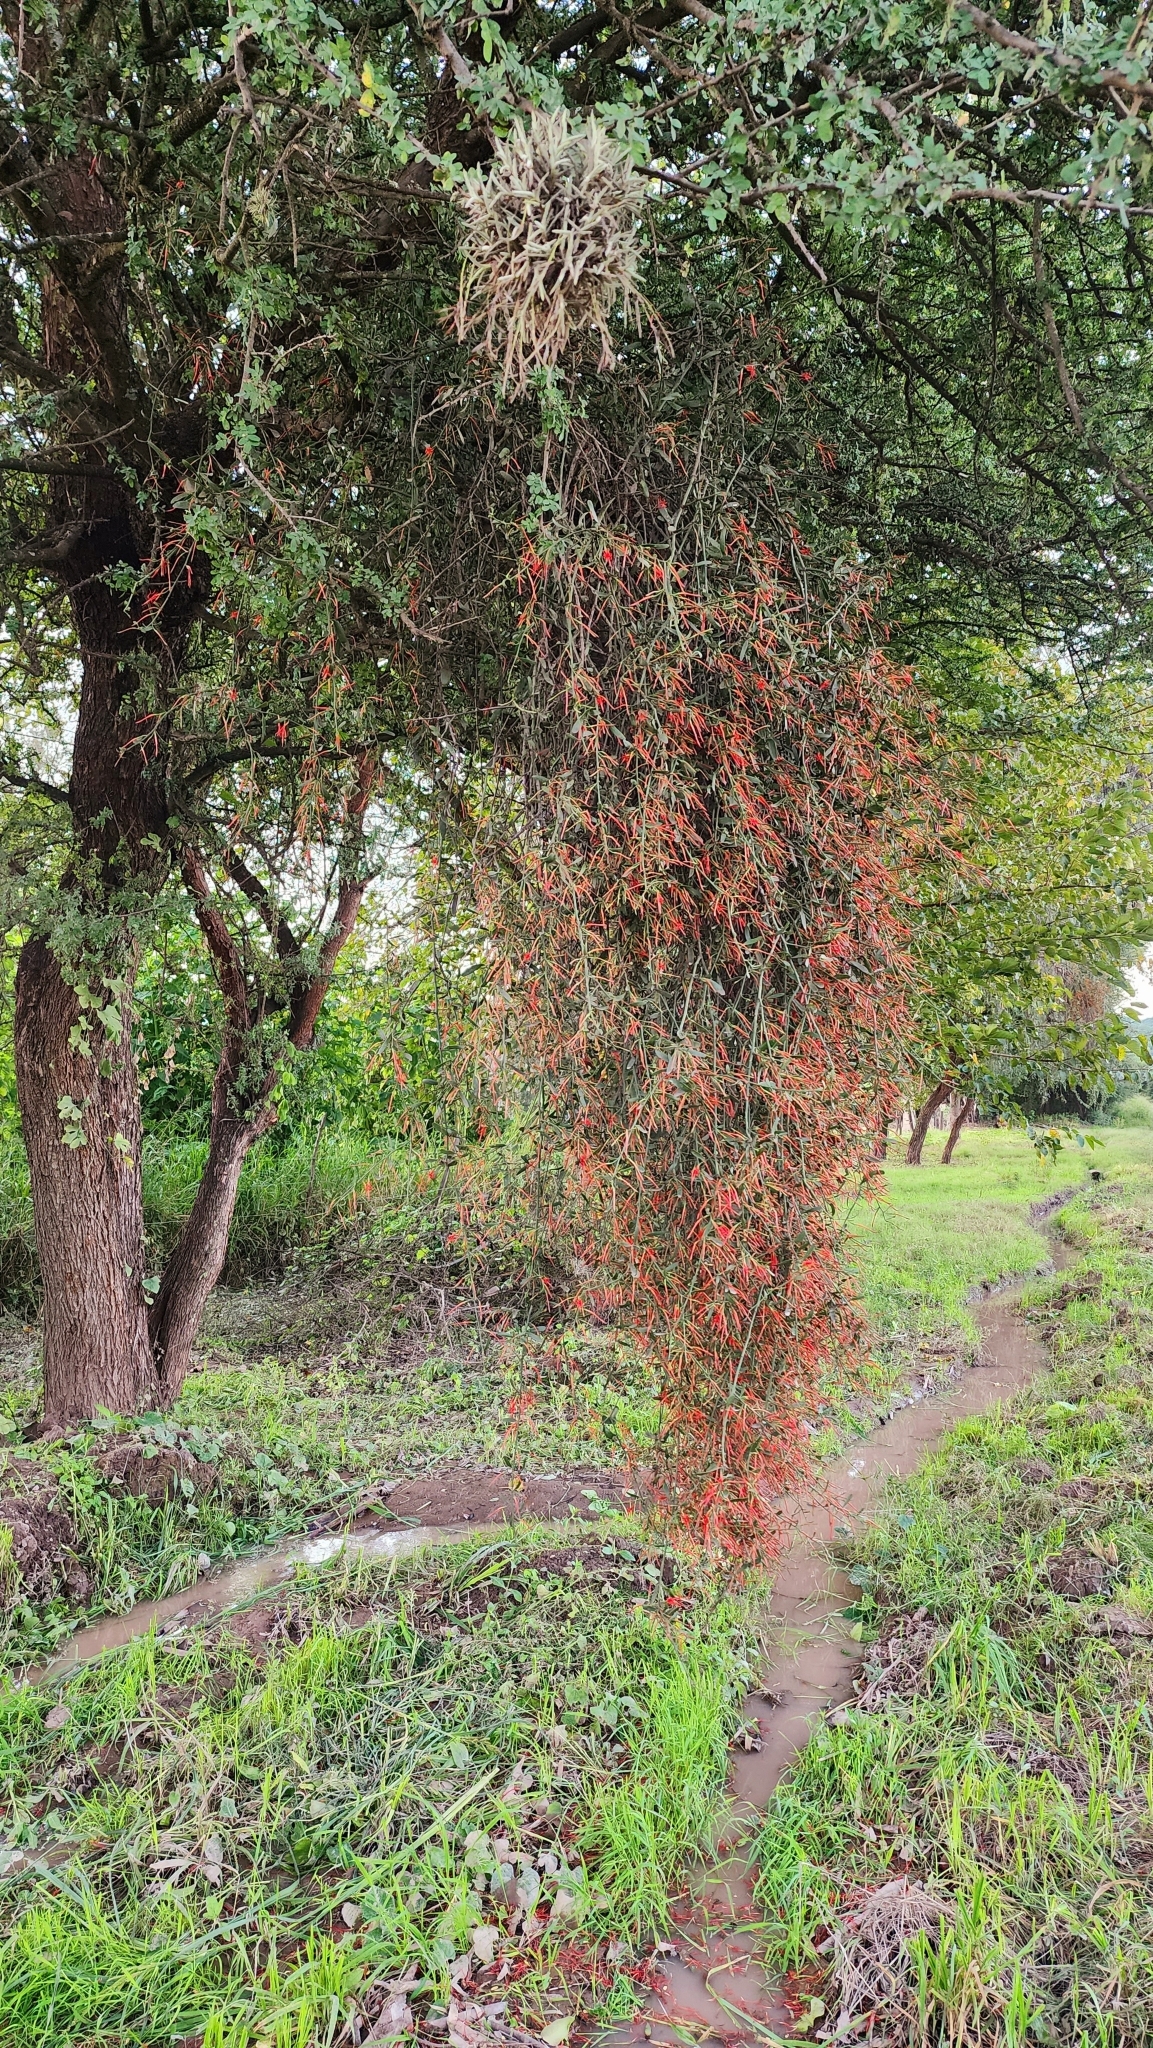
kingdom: Plantae
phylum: Tracheophyta
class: Magnoliopsida
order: Santalales
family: Loranthaceae
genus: Ligaria
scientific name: Ligaria cuneifolia
